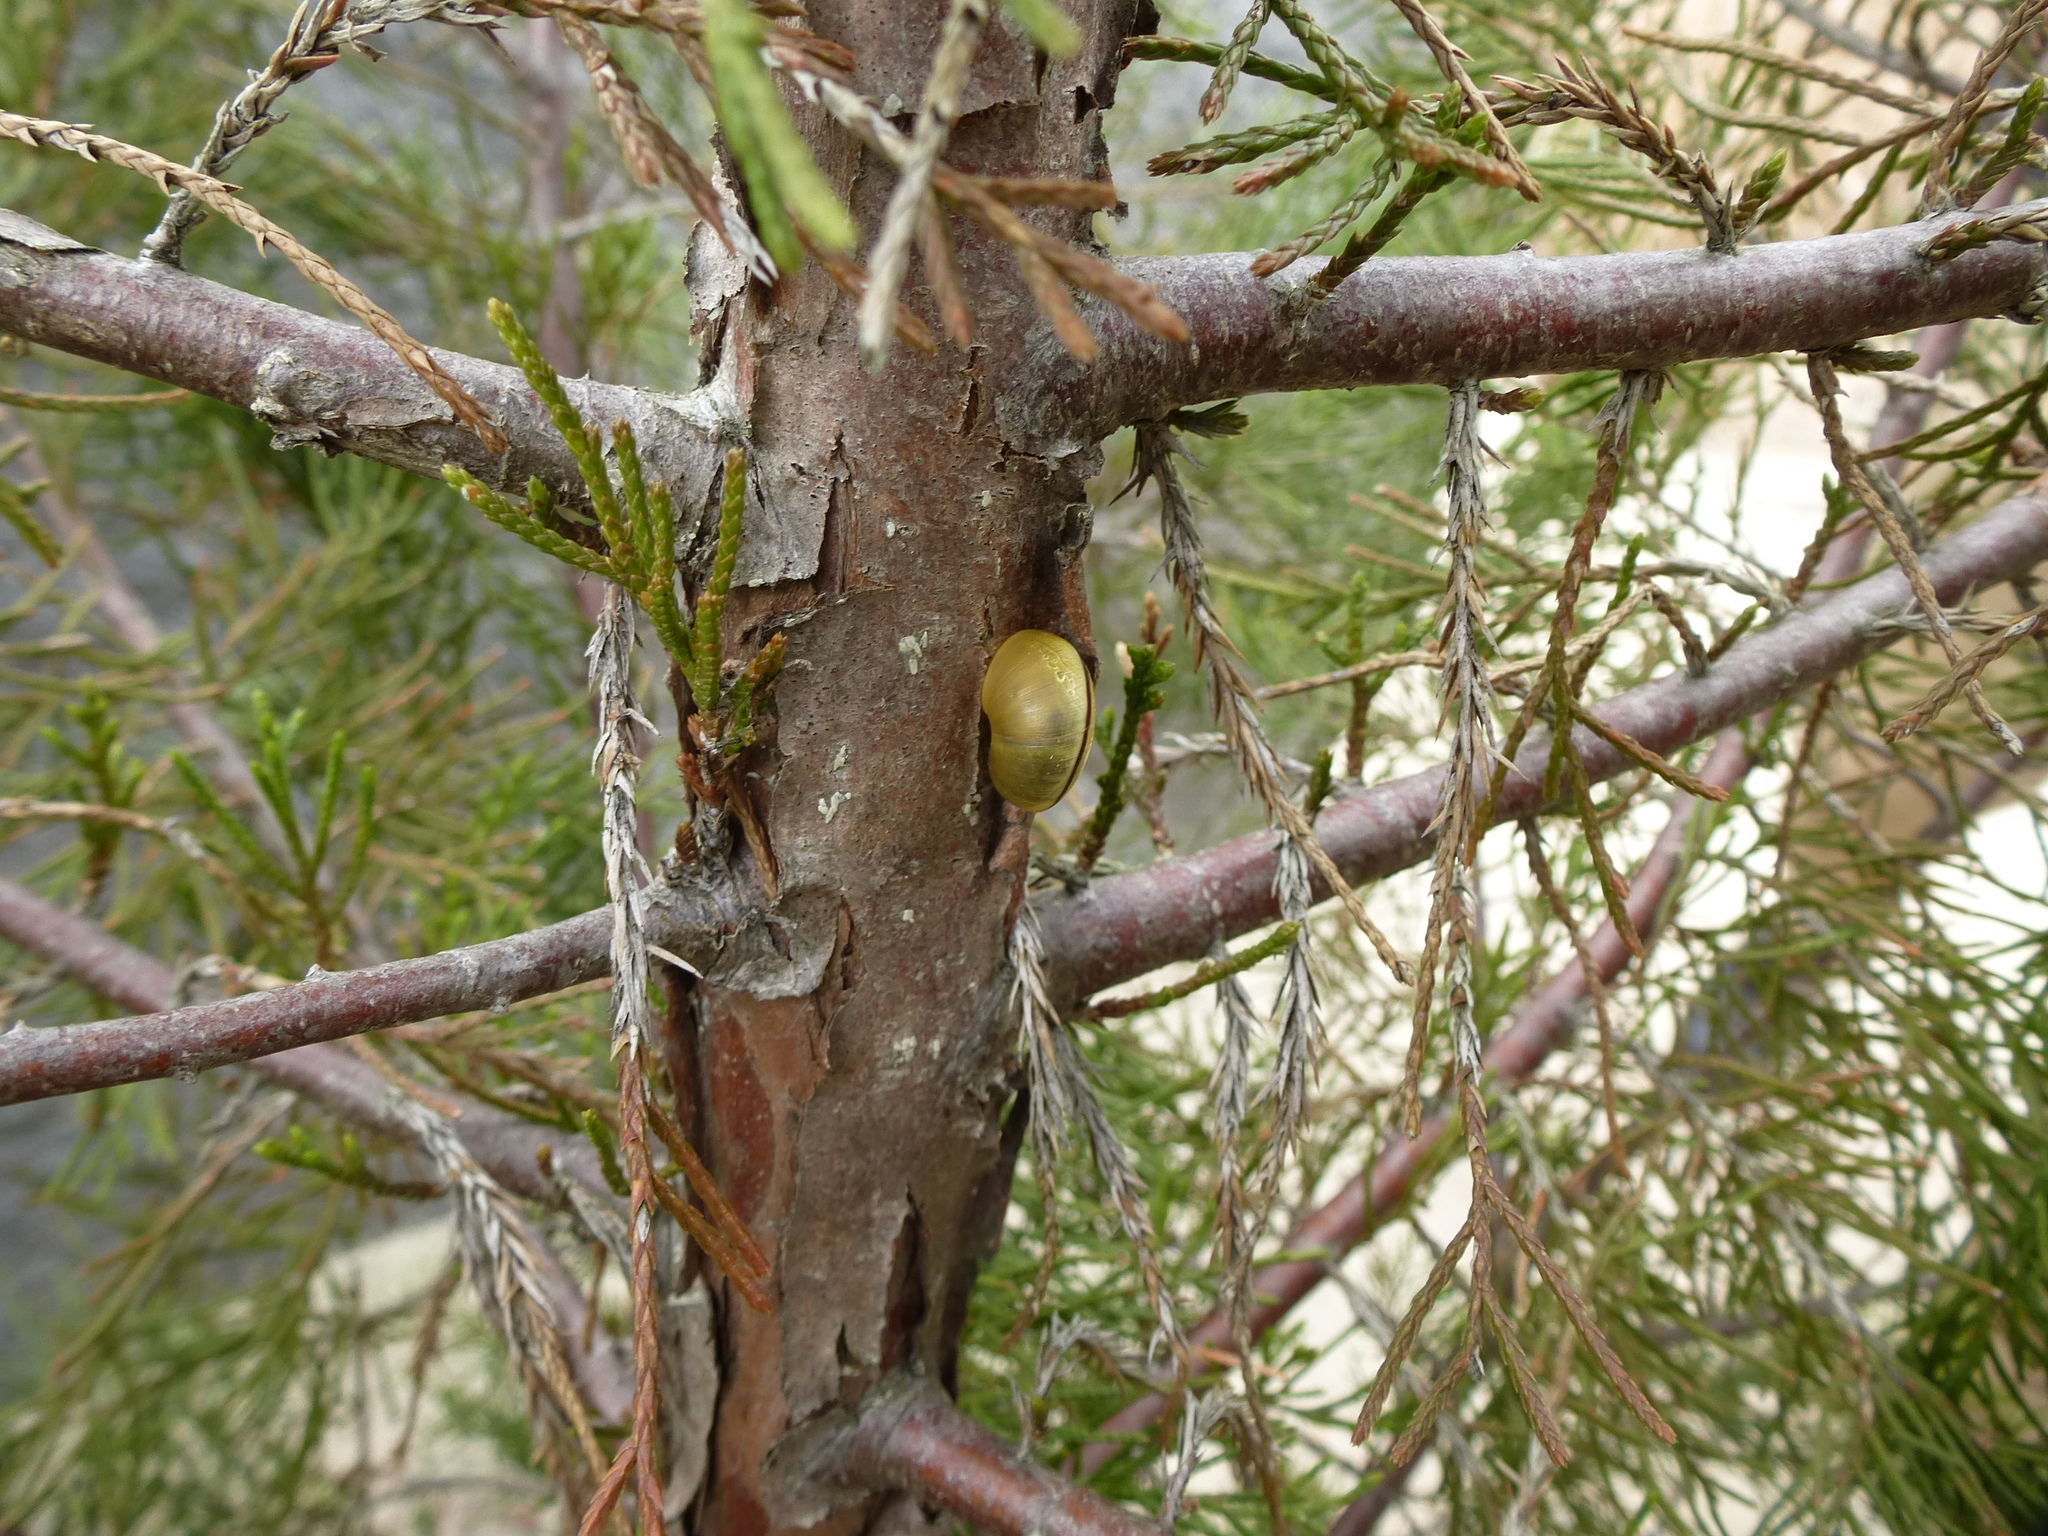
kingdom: Animalia
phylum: Mollusca
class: Gastropoda
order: Stylommatophora
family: Helicidae
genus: Cepaea
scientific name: Cepaea nemoralis
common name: Grovesnail
